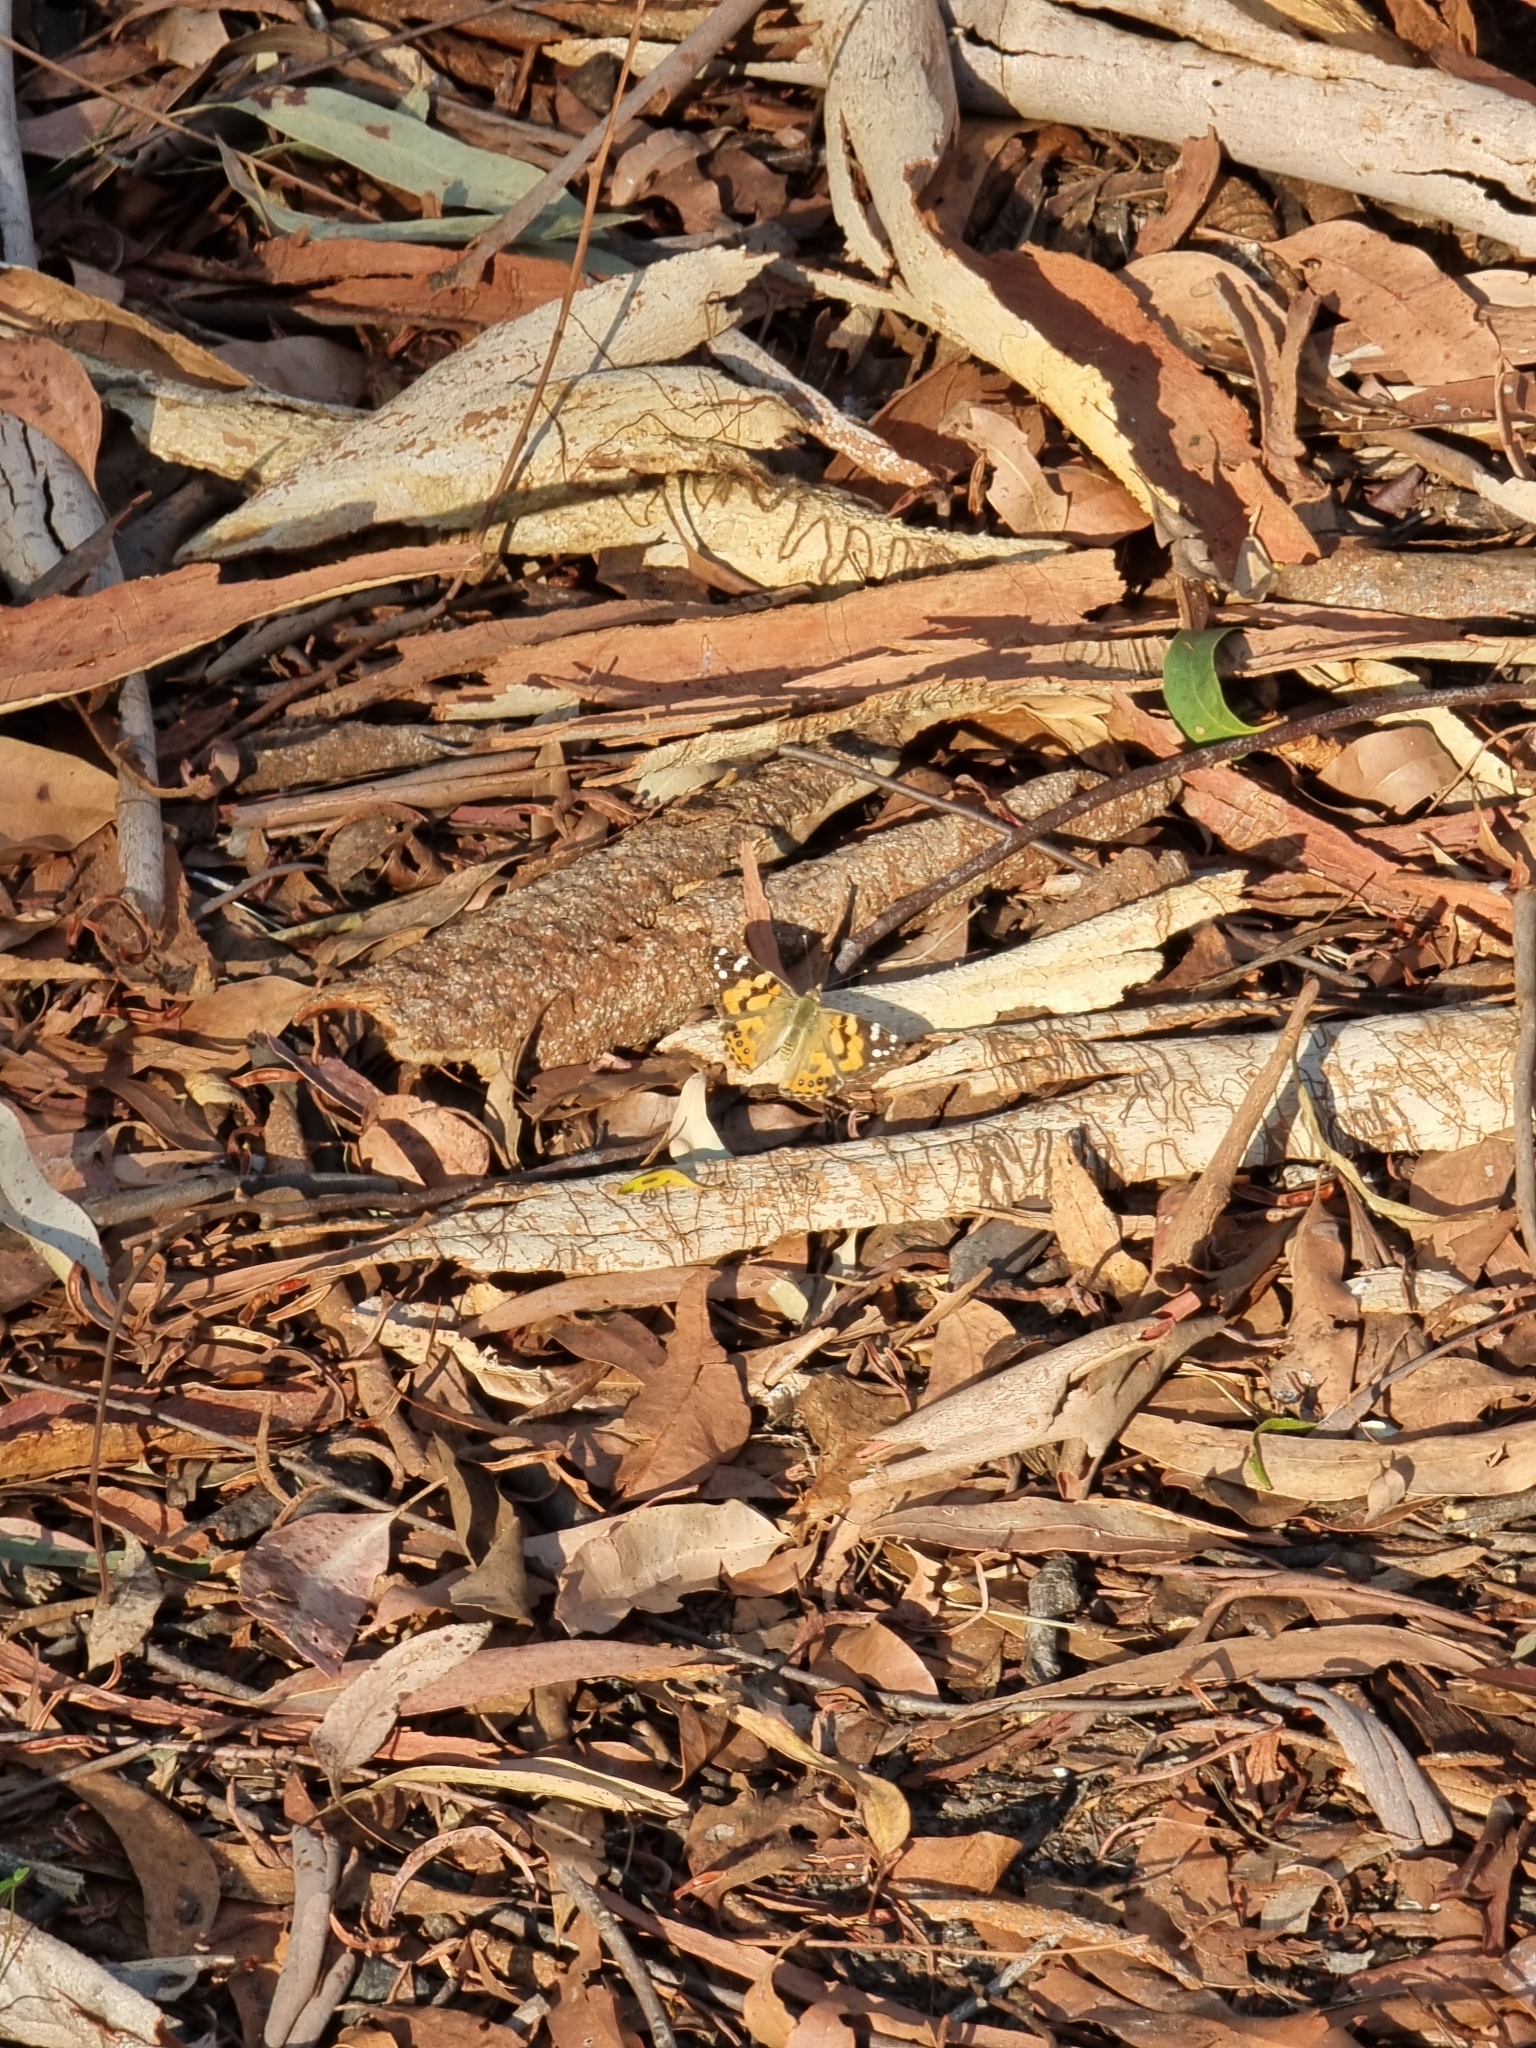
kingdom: Animalia
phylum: Arthropoda
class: Insecta
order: Lepidoptera
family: Nymphalidae
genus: Vanessa
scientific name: Vanessa kershawi
